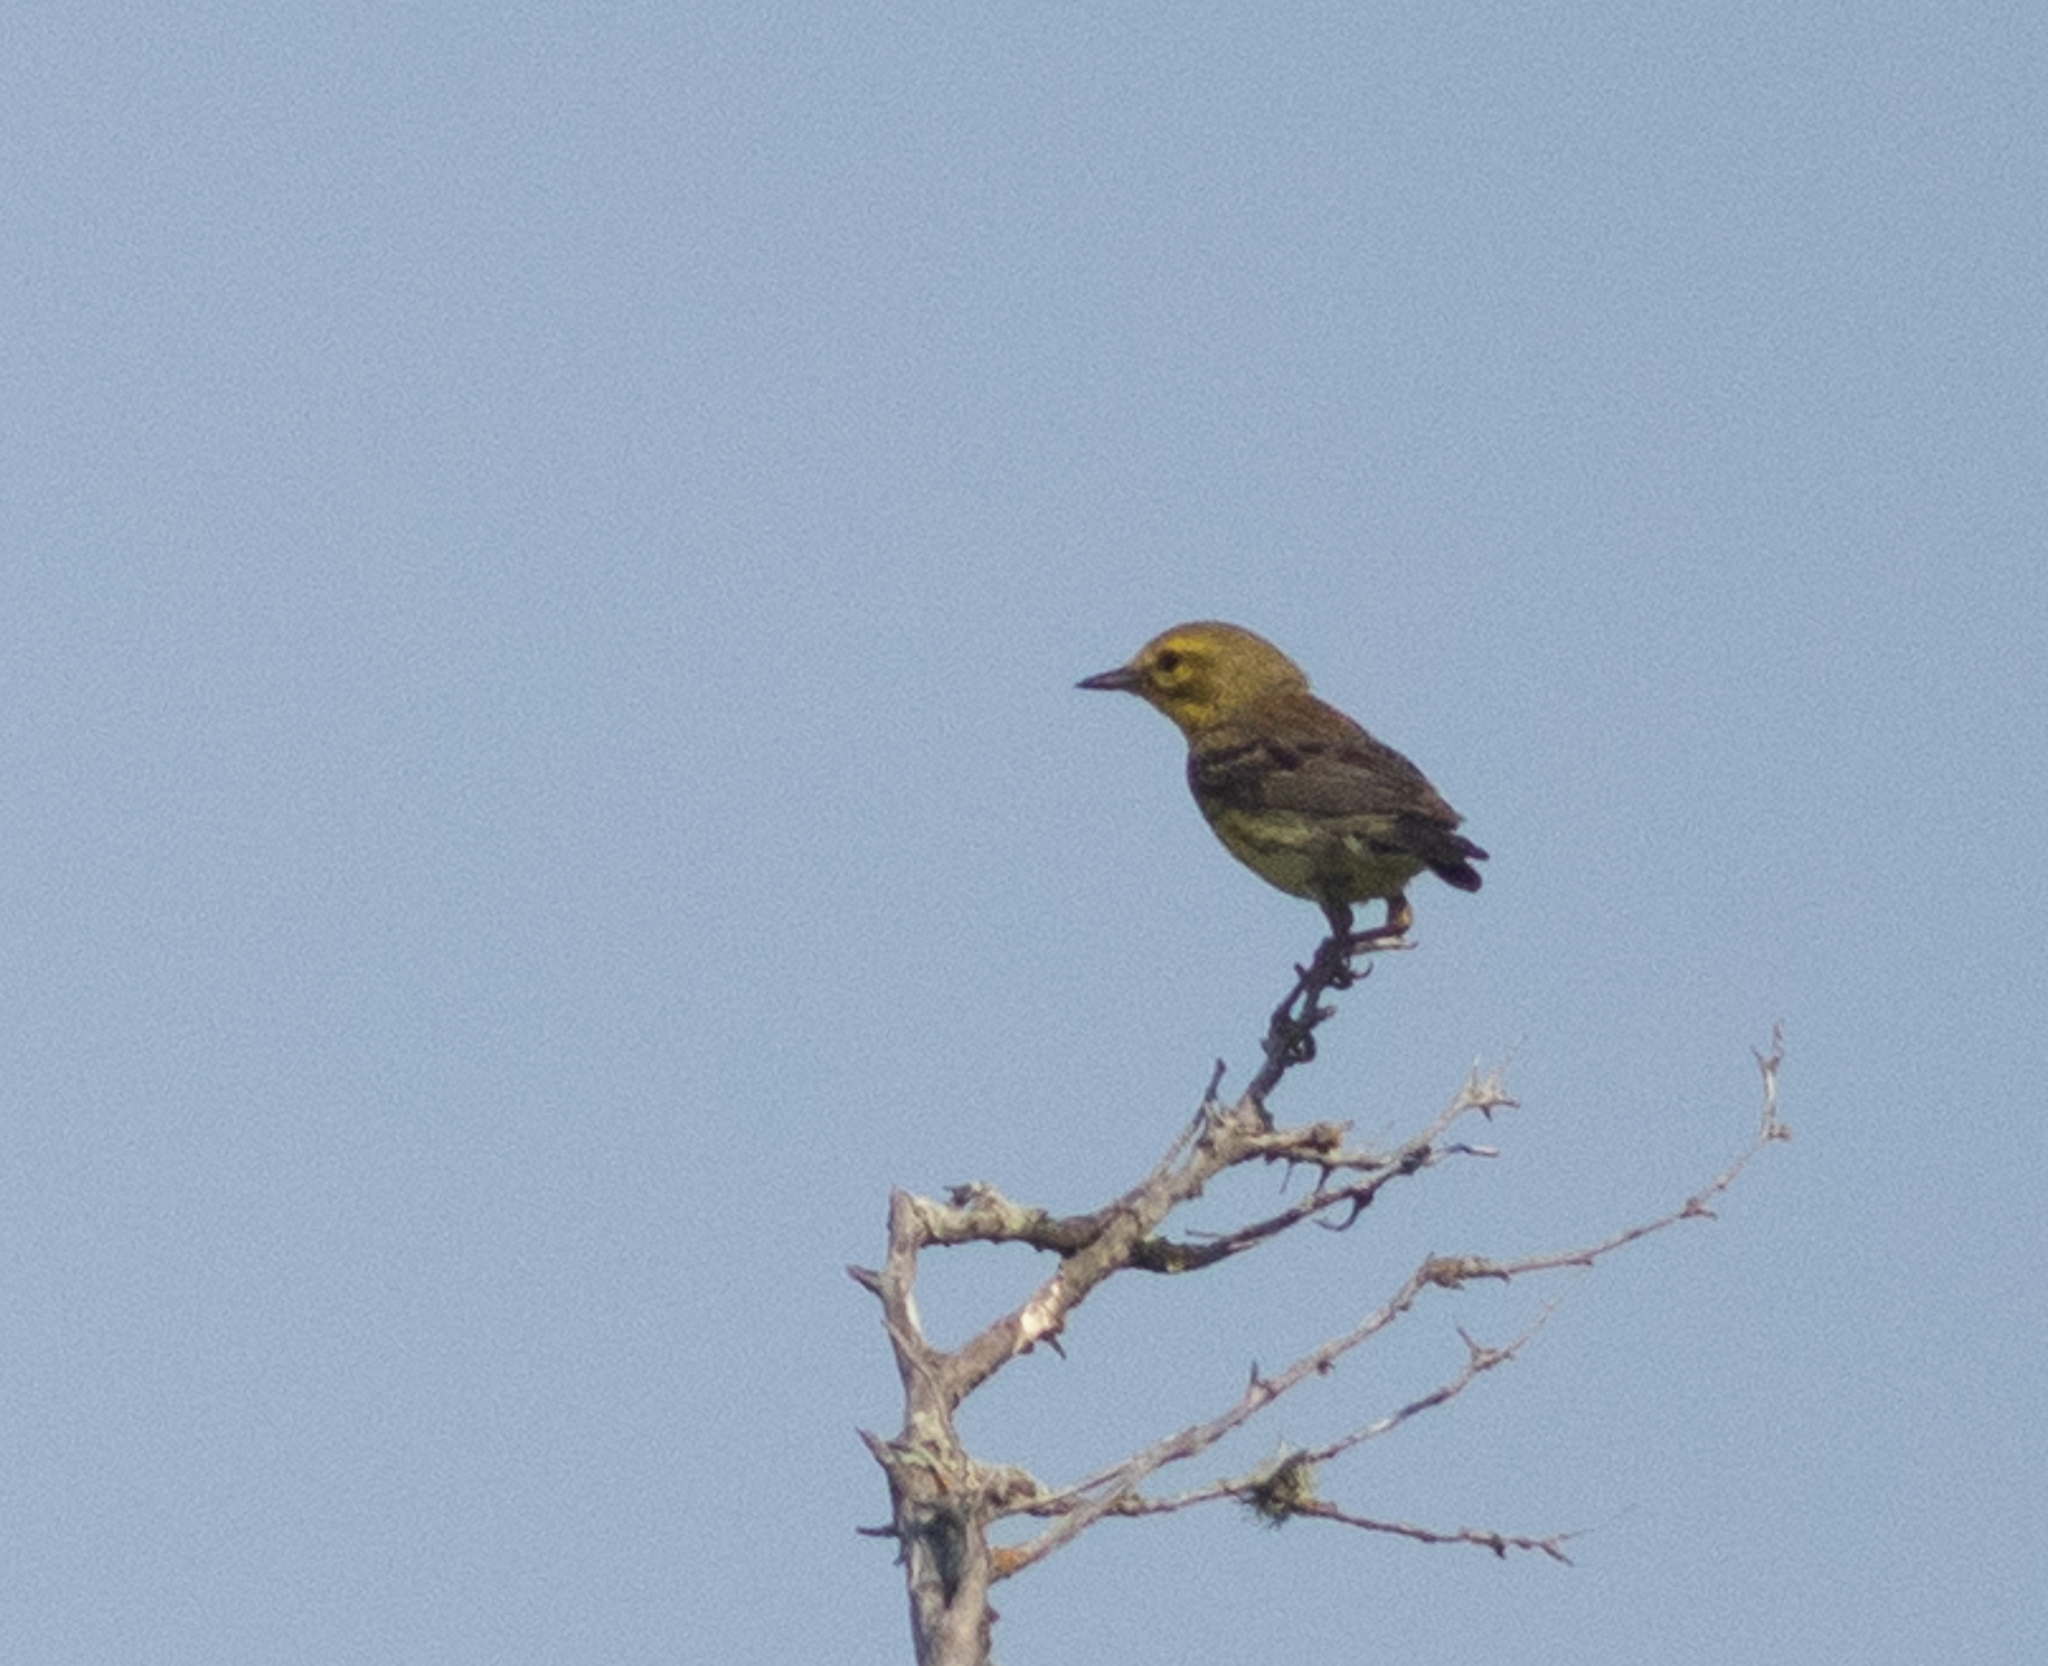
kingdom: Animalia
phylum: Chordata
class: Aves
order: Passeriformes
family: Parulidae
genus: Setophaga
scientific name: Setophaga discolor
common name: Prairie warbler
